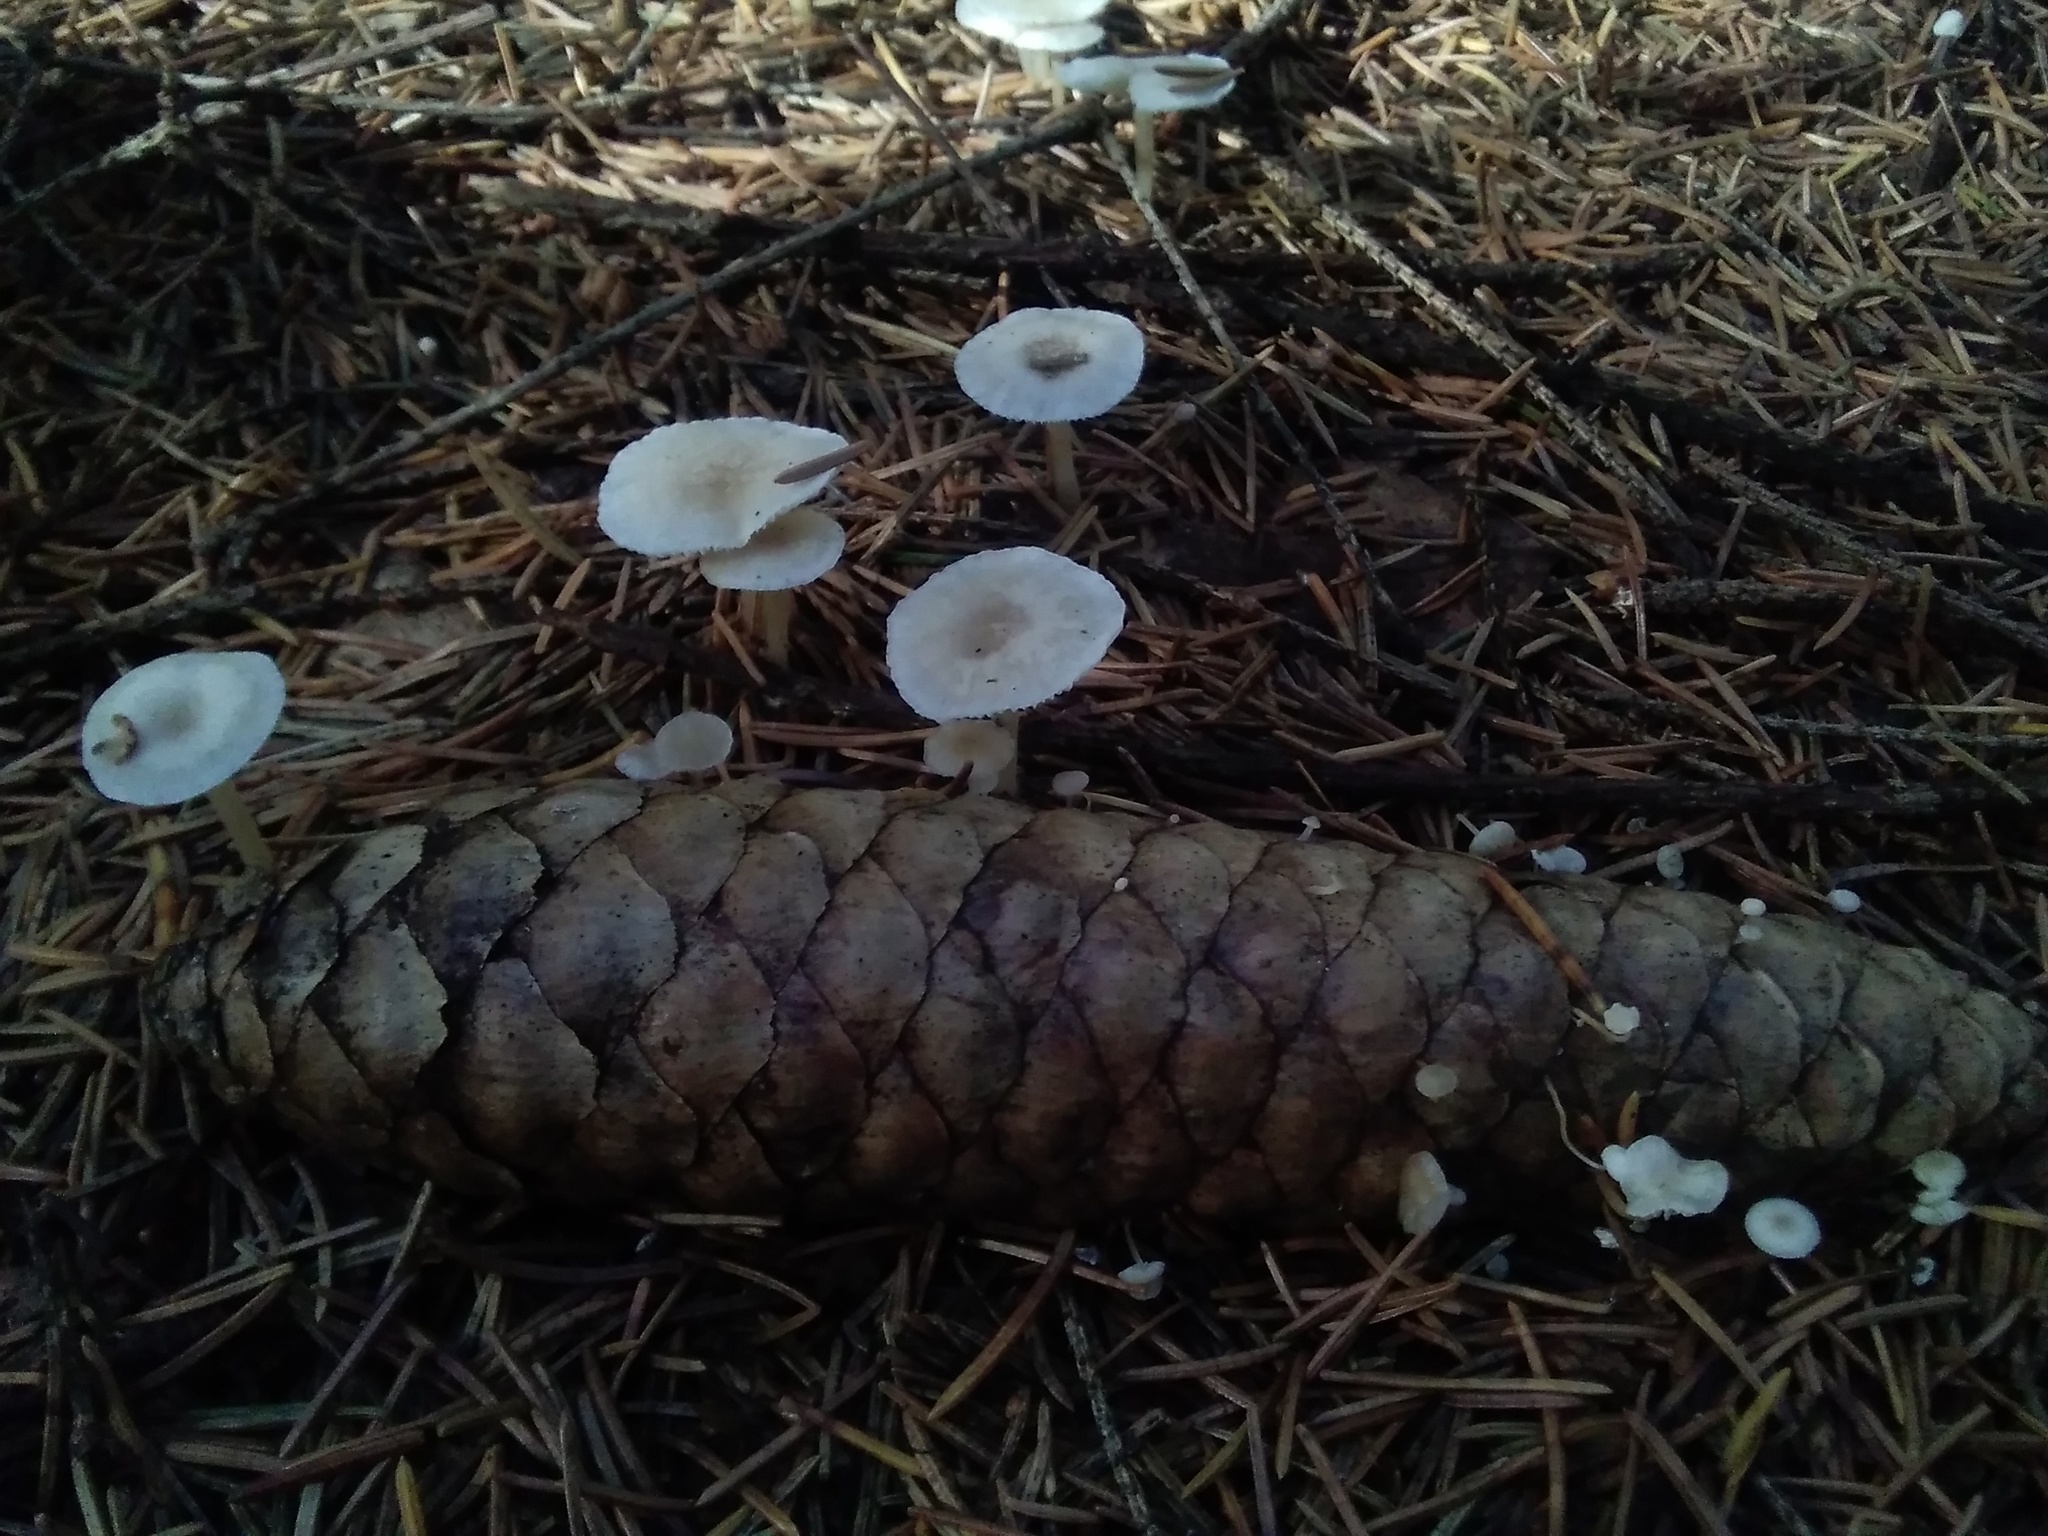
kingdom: Fungi
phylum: Basidiomycota
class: Agaricomycetes
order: Agaricales
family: Mycenaceae
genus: Mycena
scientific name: Mycena plumipes
